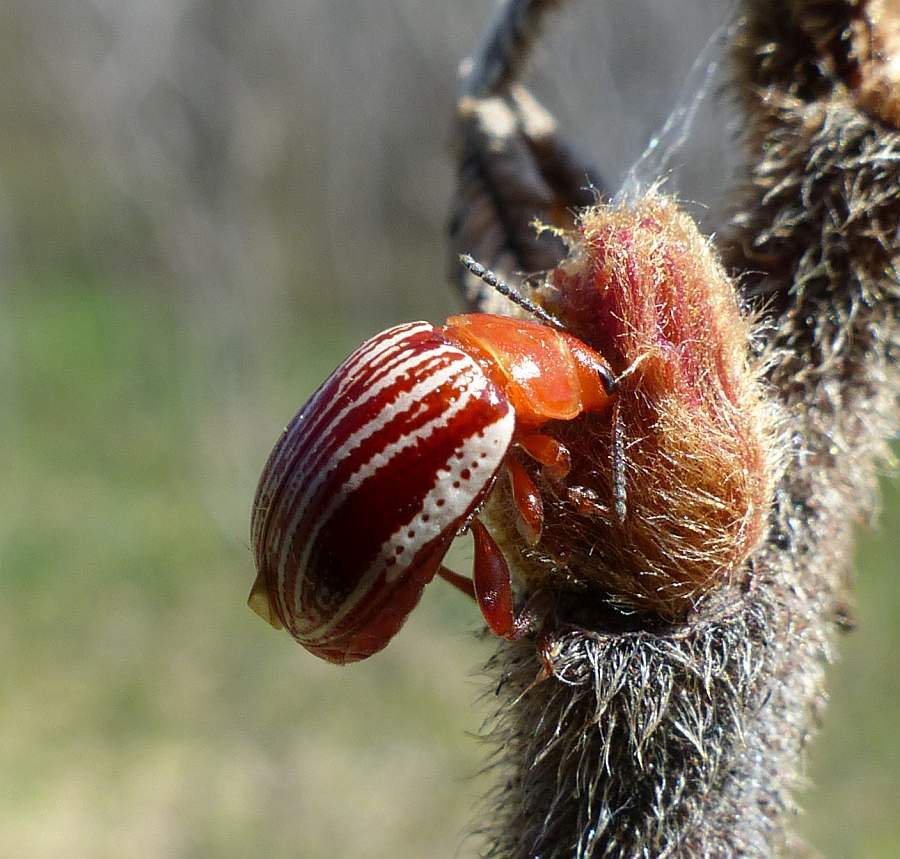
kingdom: Animalia
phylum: Arthropoda
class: Insecta
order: Coleoptera
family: Chrysomelidae
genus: Blepharida
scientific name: Blepharida rhois
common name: Sumac flea beetle
